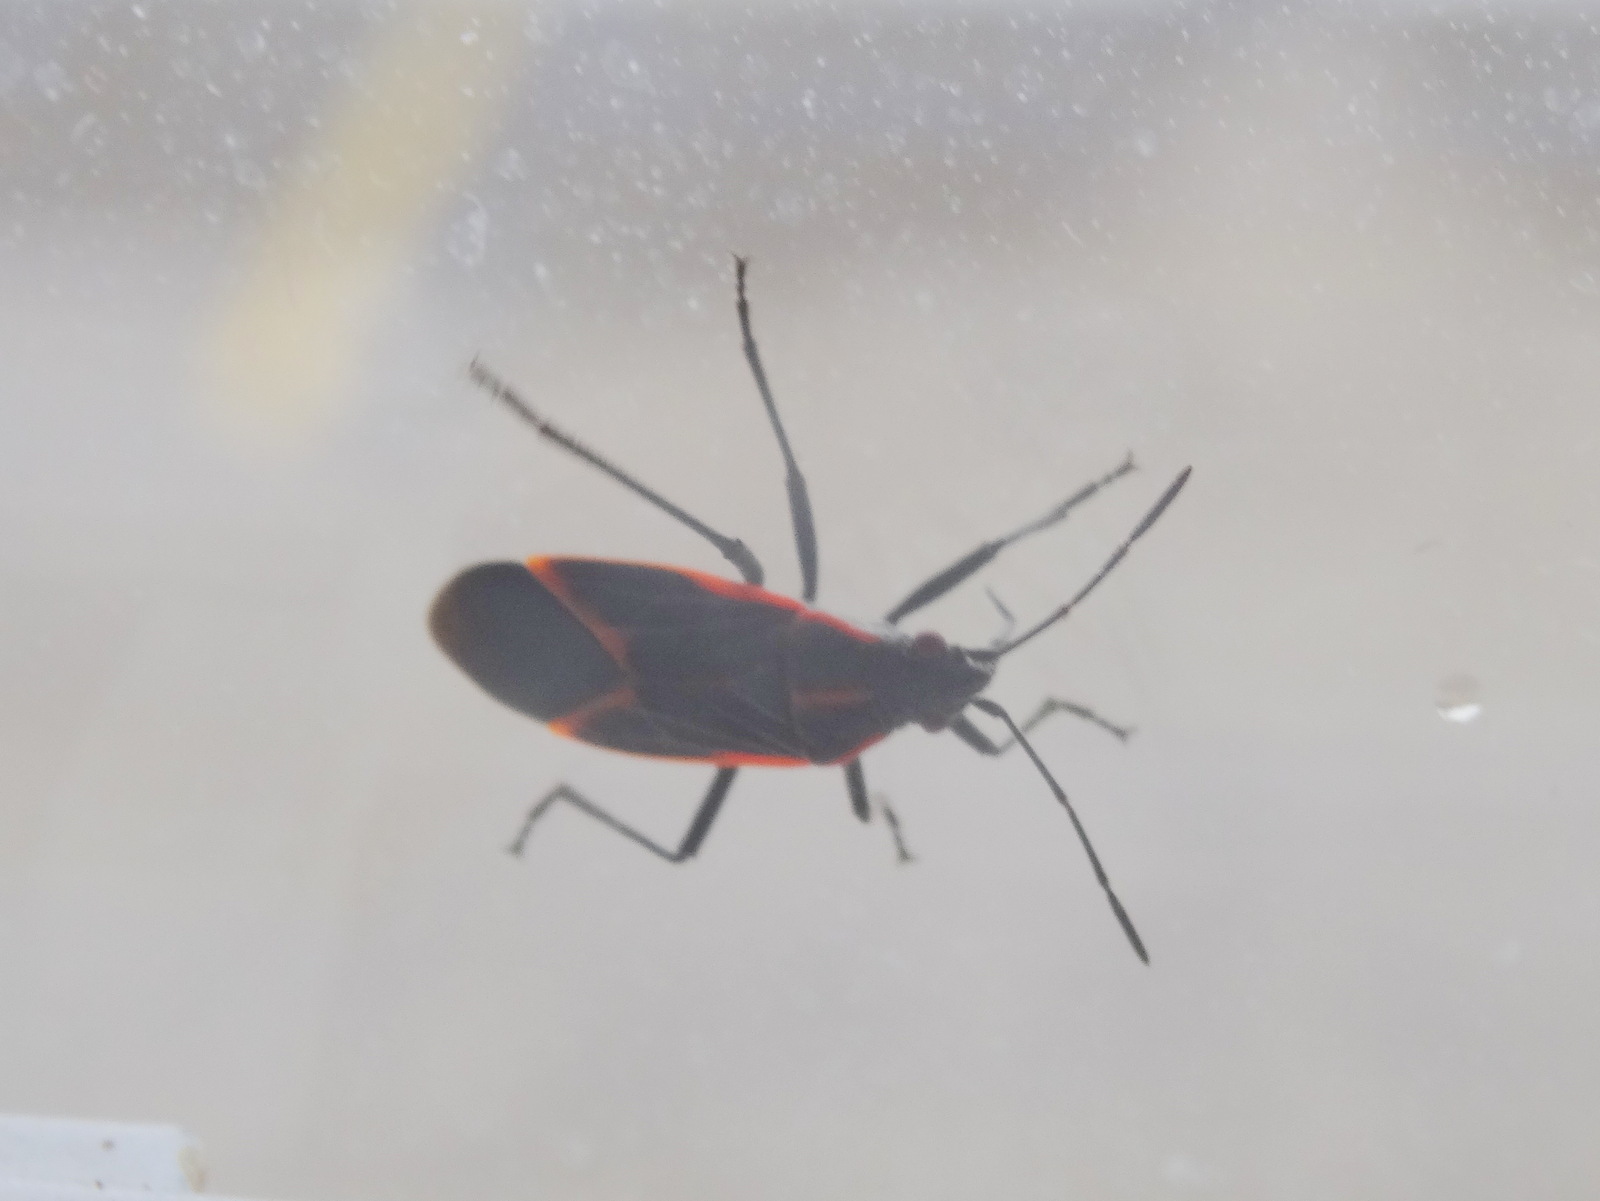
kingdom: Animalia
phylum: Arthropoda
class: Insecta
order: Hemiptera
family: Rhopalidae
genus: Boisea
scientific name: Boisea trivittata
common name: Boxelder bug
